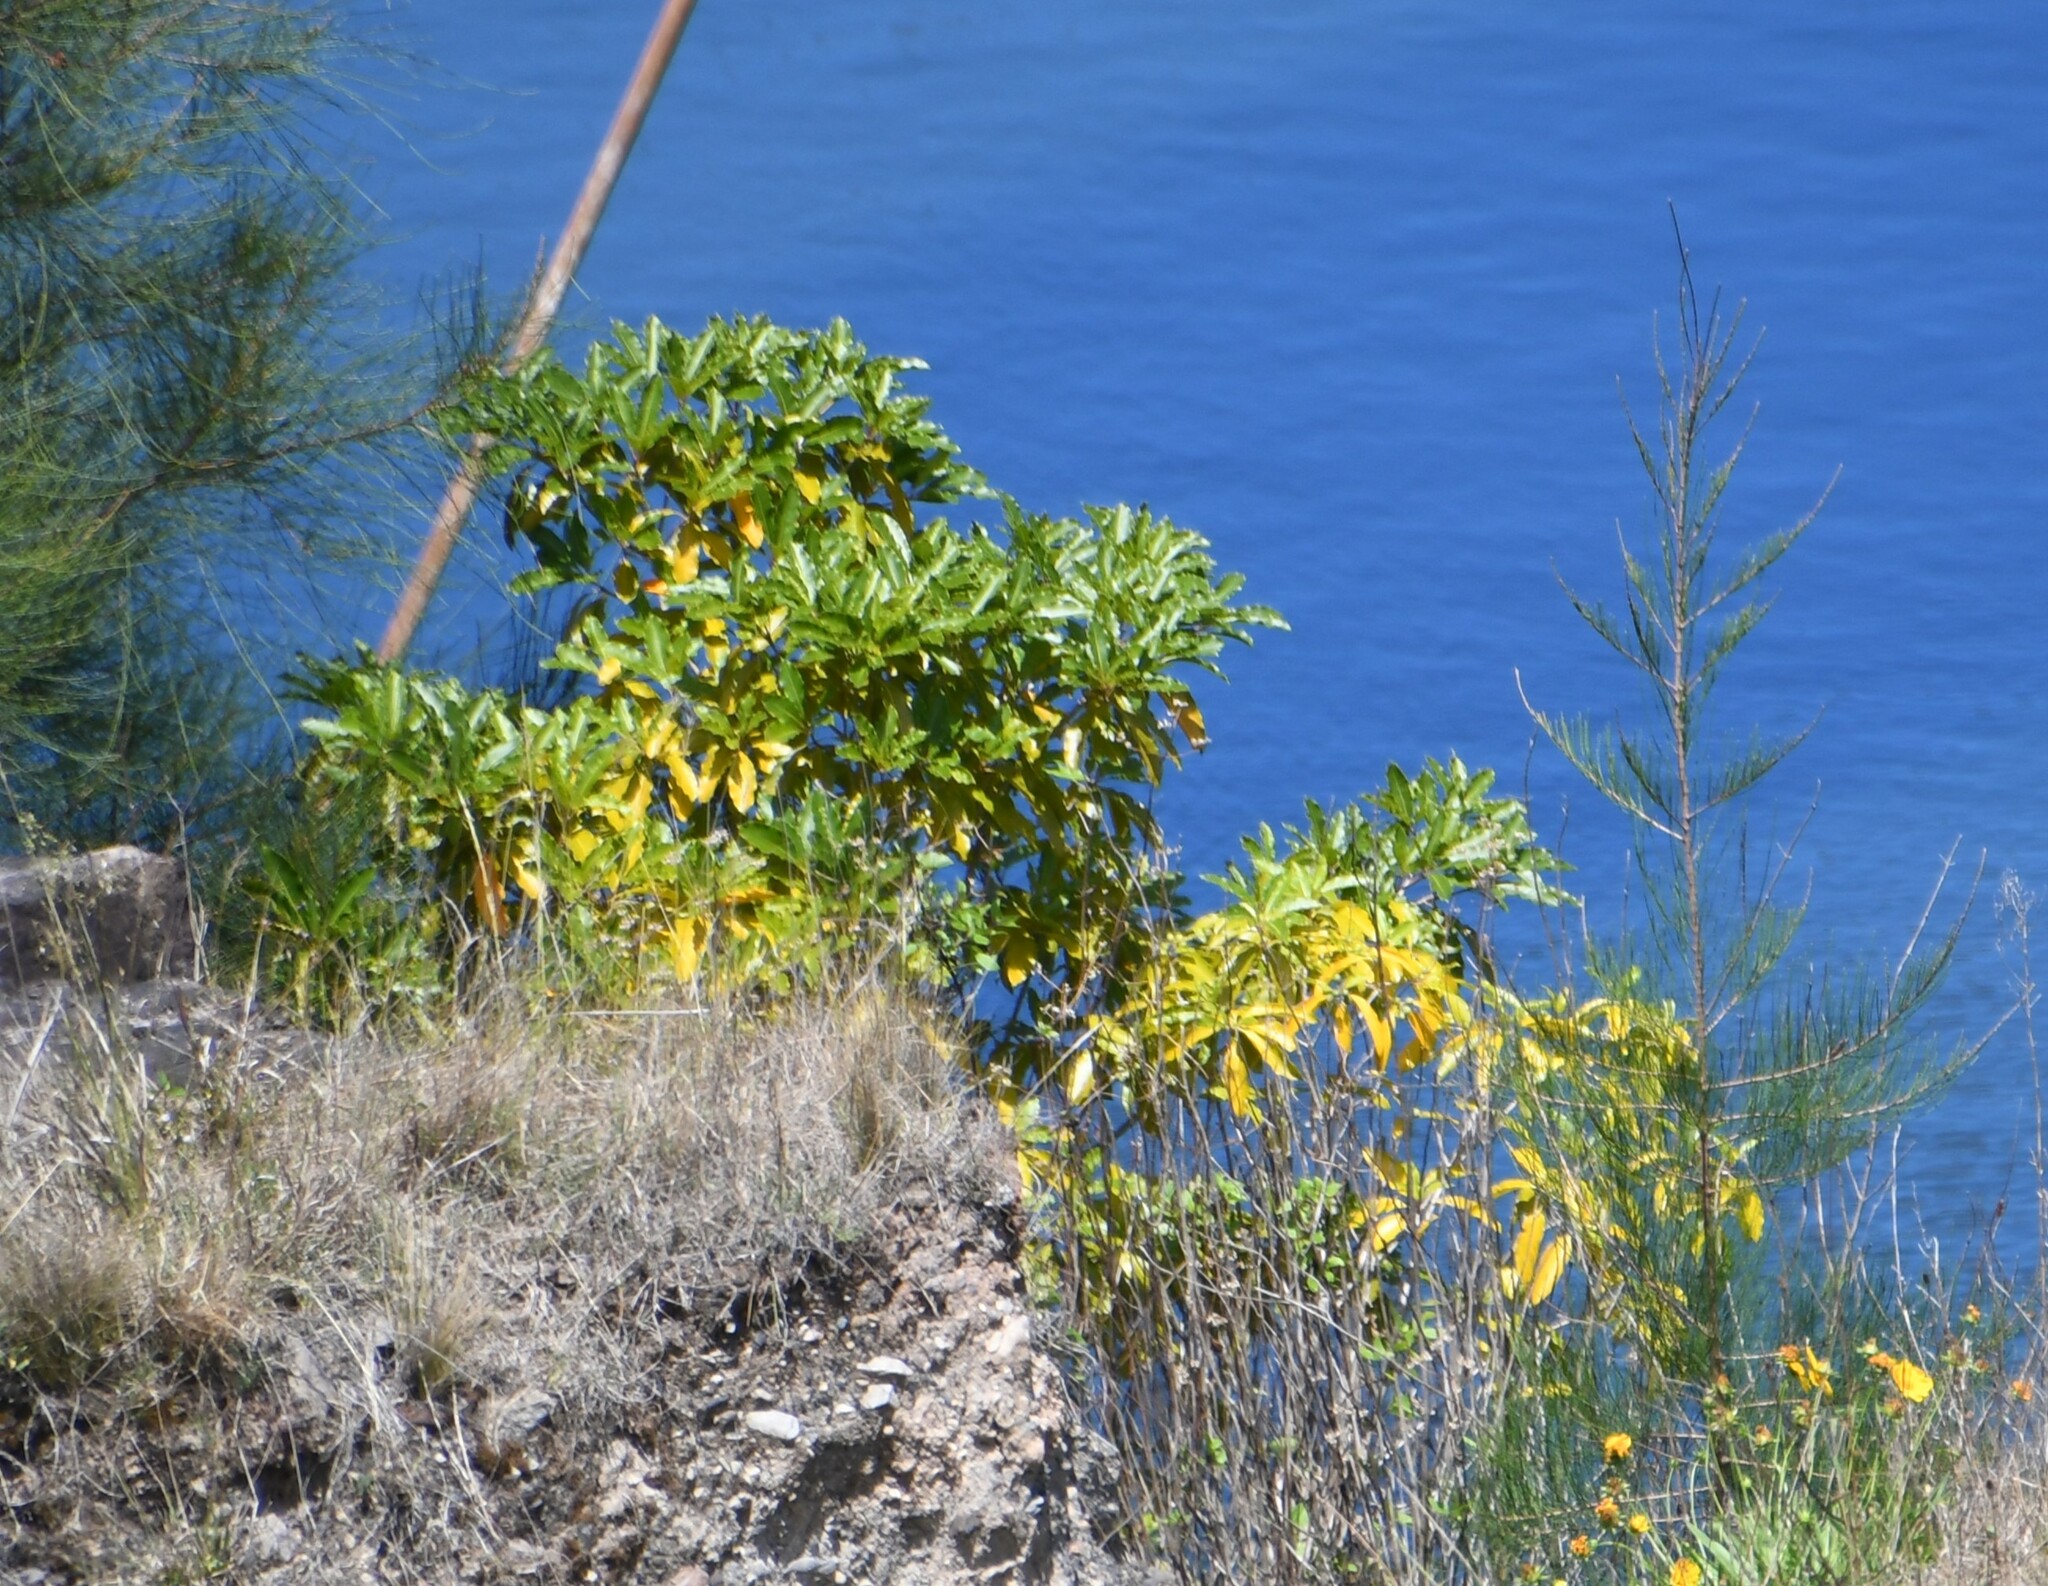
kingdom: Plantae
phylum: Tracheophyta
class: Magnoliopsida
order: Apiales
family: Pittosporaceae
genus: Pittosporum
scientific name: Pittosporum undulatum
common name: Australian cheesewood
